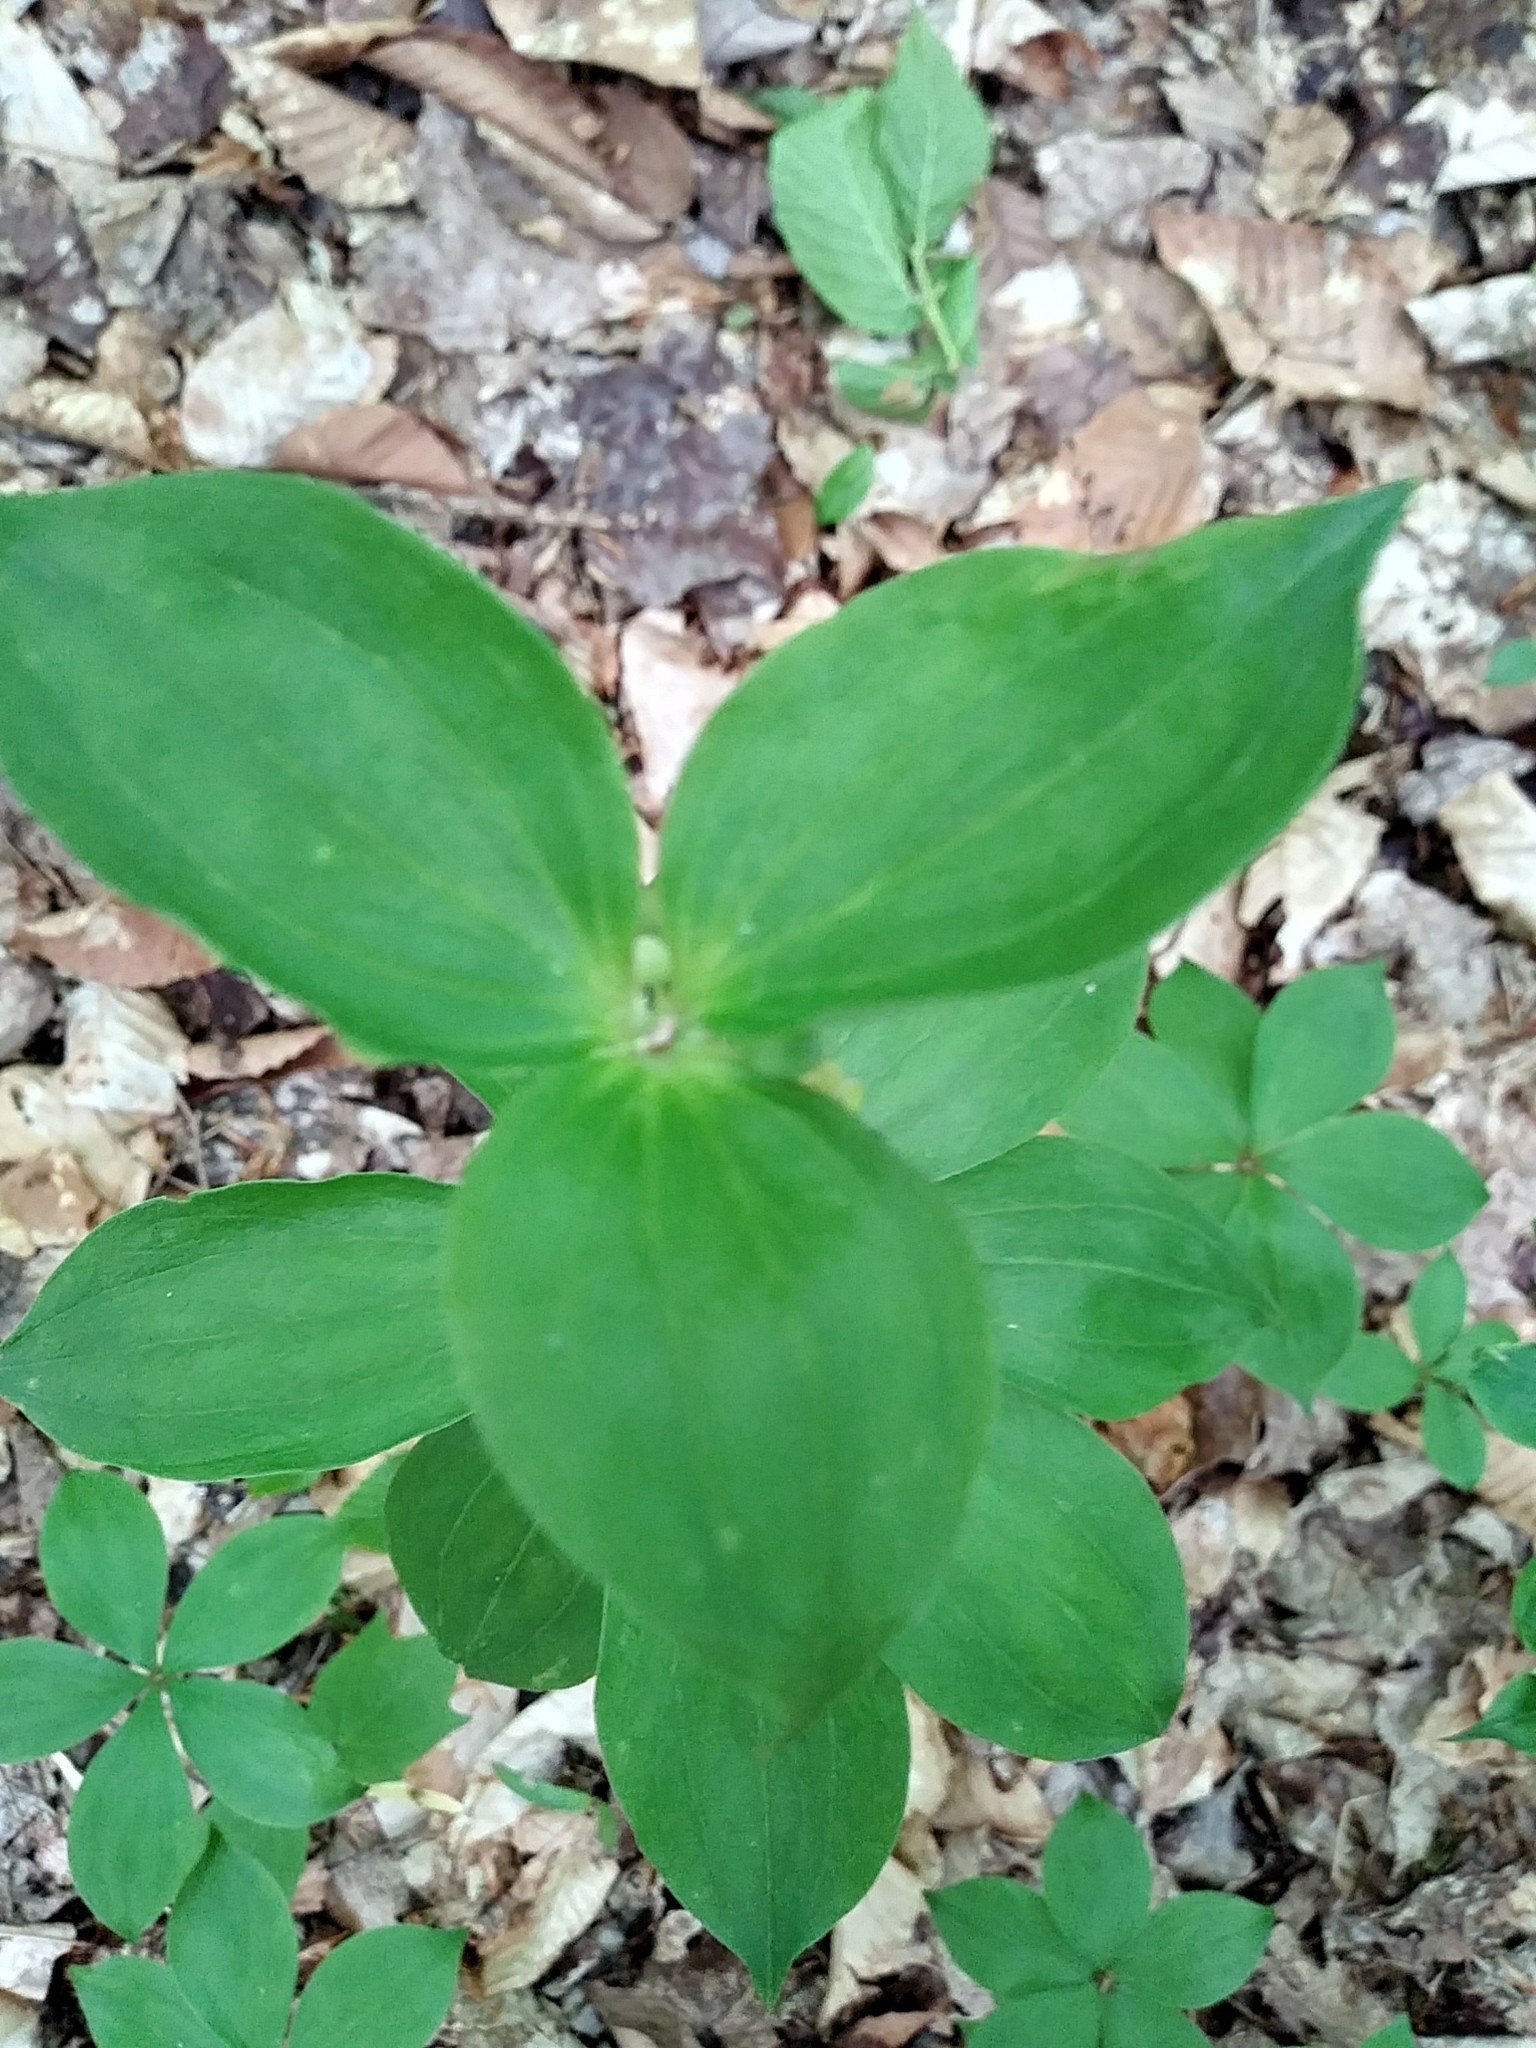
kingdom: Plantae
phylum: Tracheophyta
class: Liliopsida
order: Liliales
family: Liliaceae
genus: Medeola
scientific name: Medeola virginiana
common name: Indian cucumber-root
